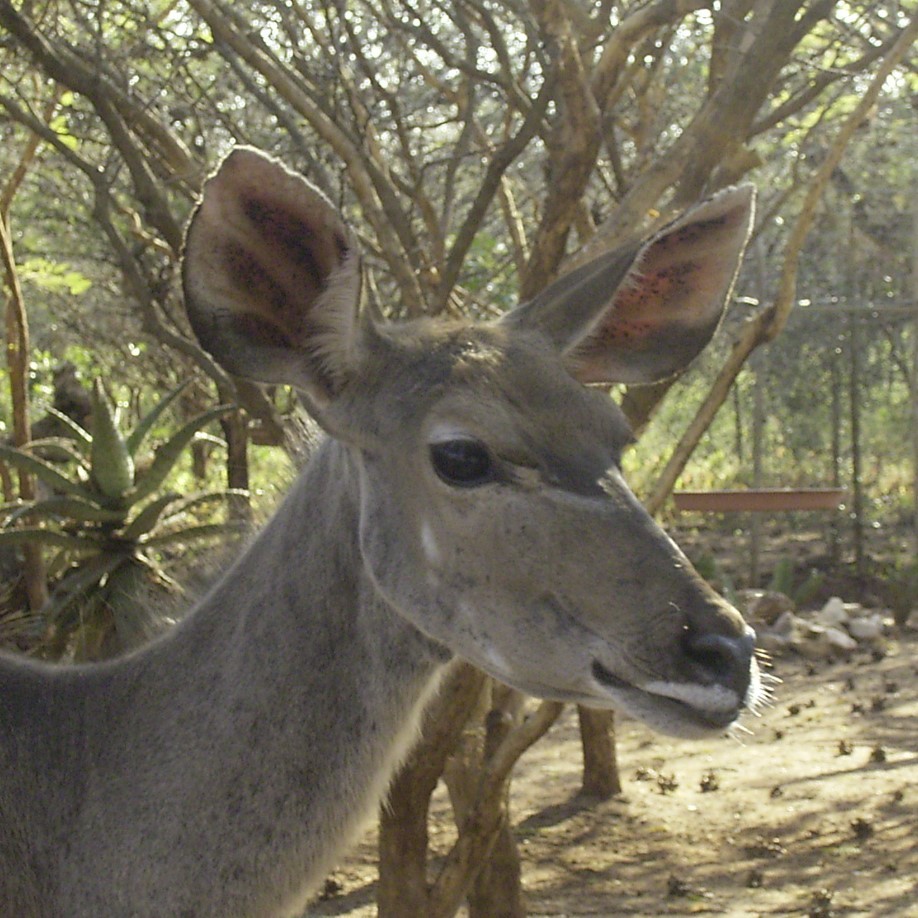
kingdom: Animalia
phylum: Chordata
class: Mammalia
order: Artiodactyla
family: Bovidae
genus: Tragelaphus
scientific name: Tragelaphus strepsiceros
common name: Greater kudu
